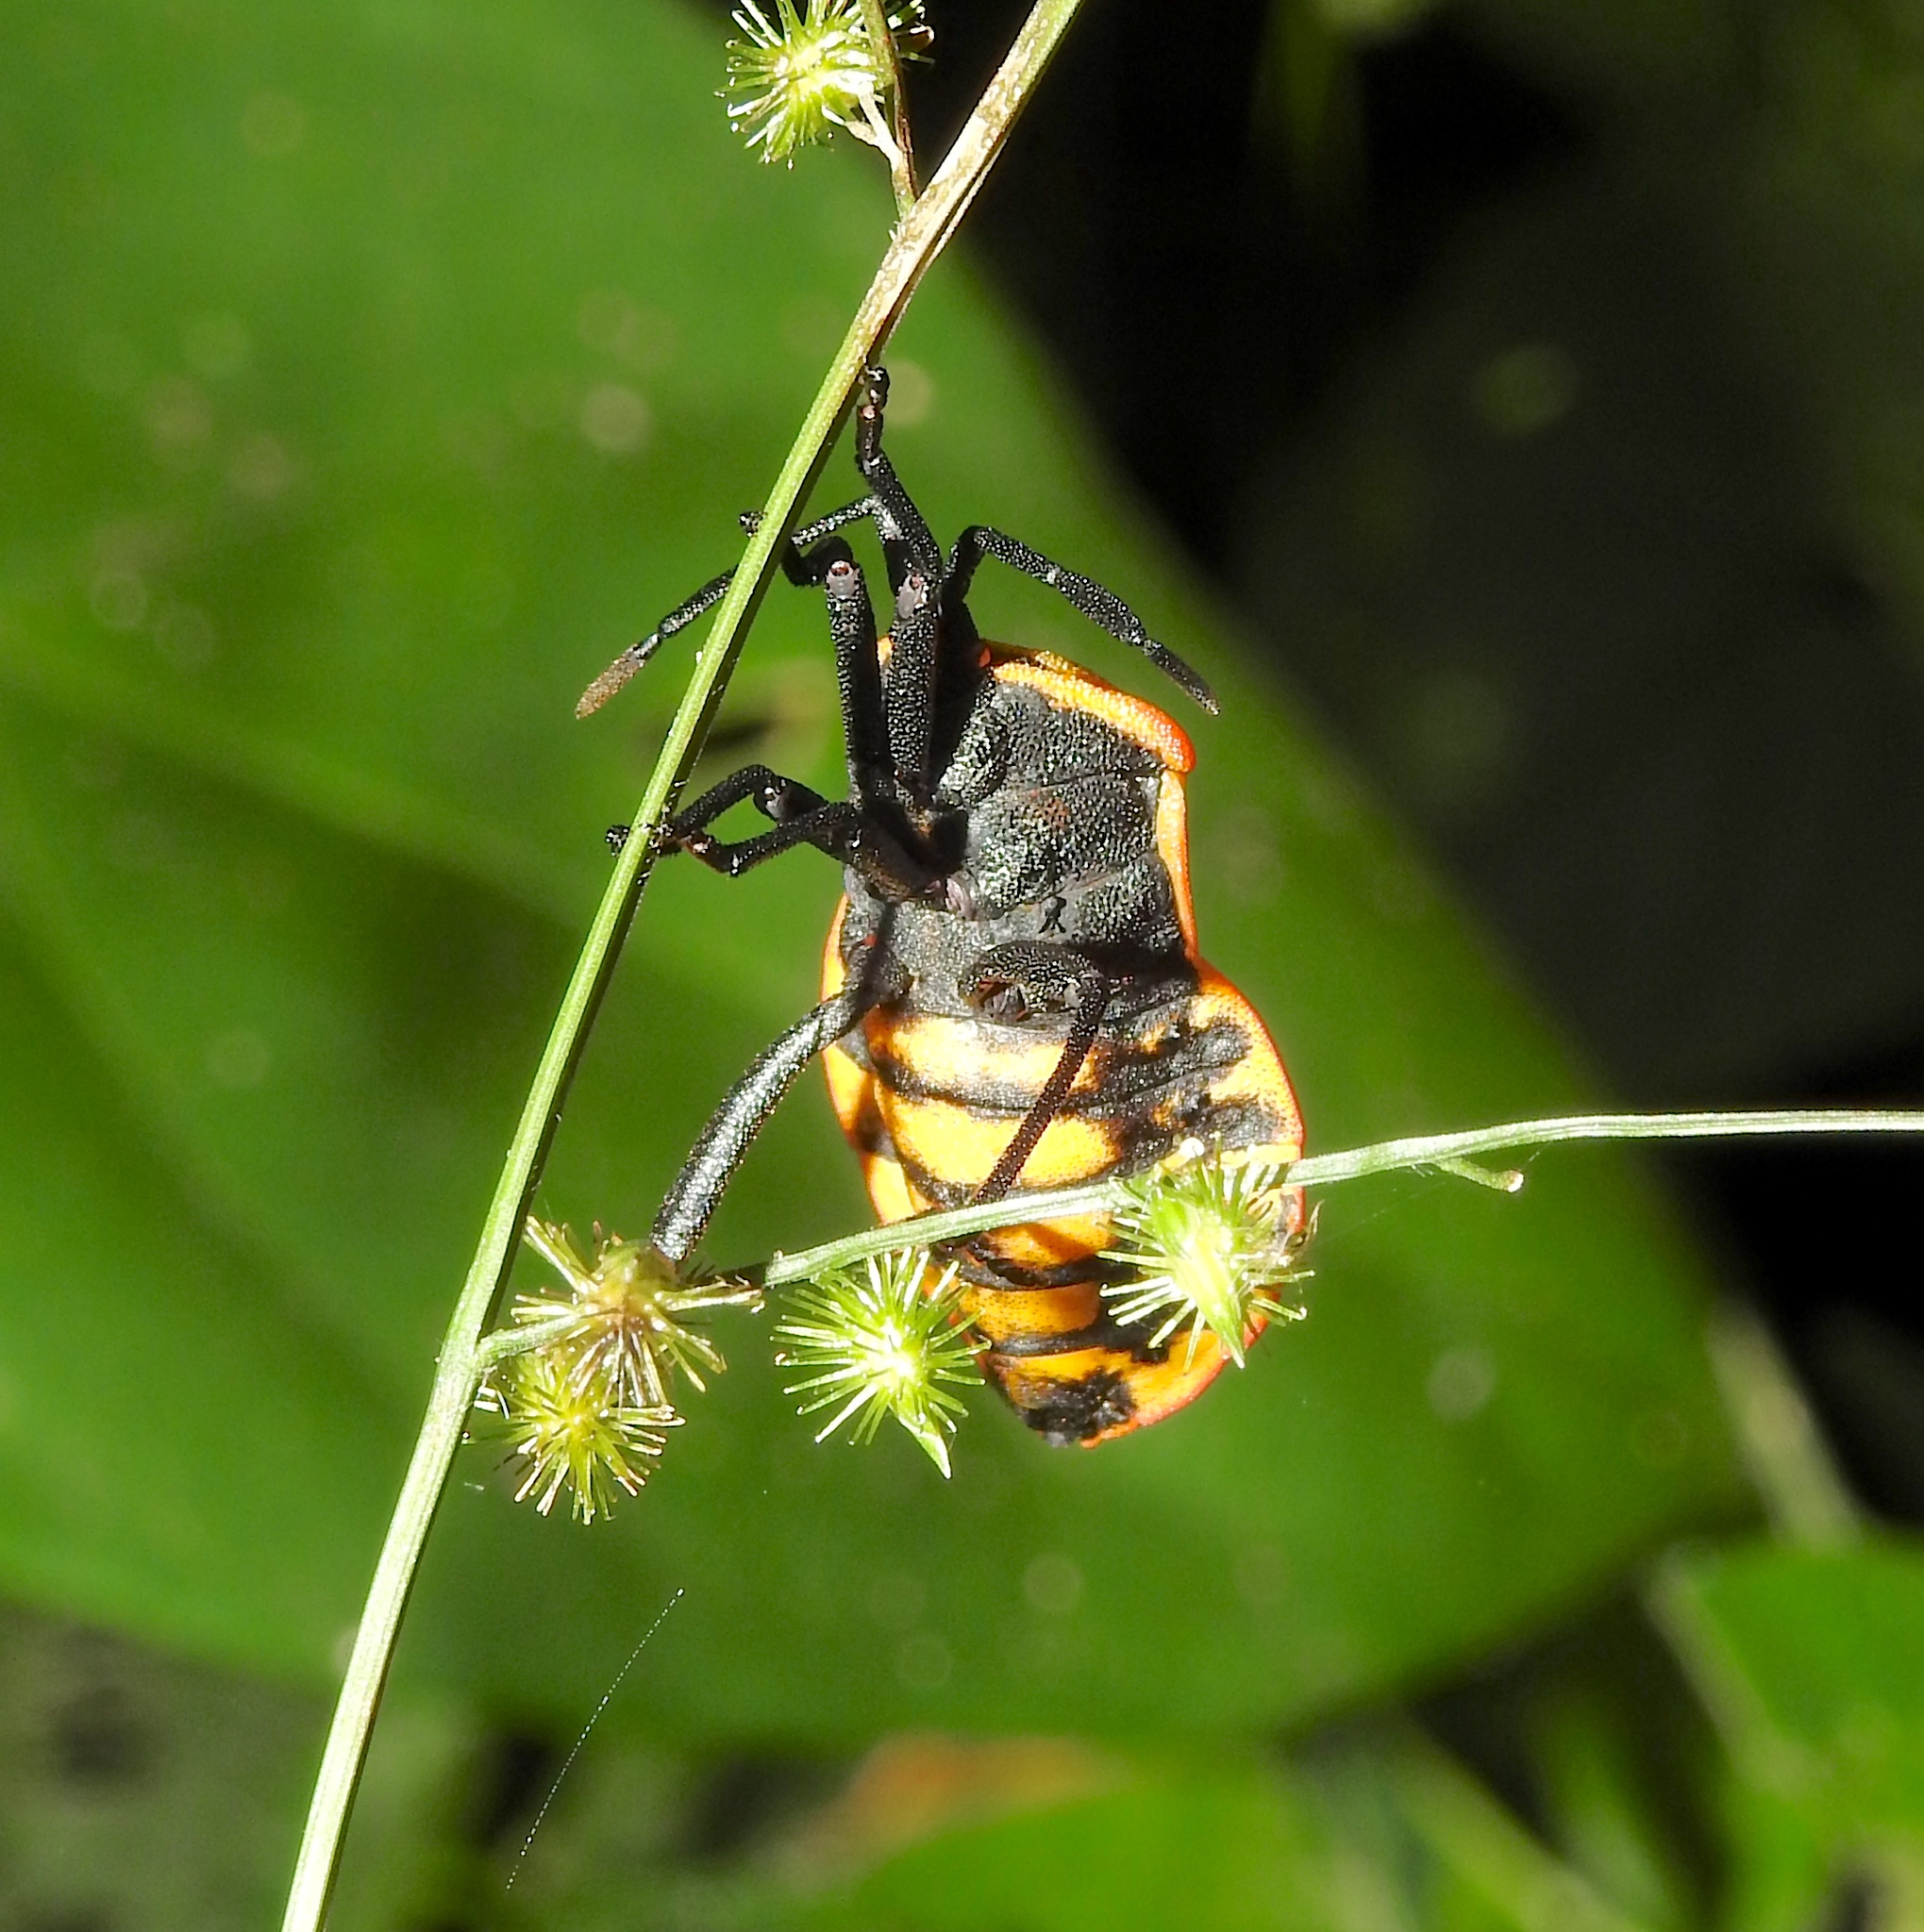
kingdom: Animalia
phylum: Arthropoda
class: Insecta
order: Hemiptera
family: Coreidae
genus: Brachytes
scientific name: Brachytes bicolor
